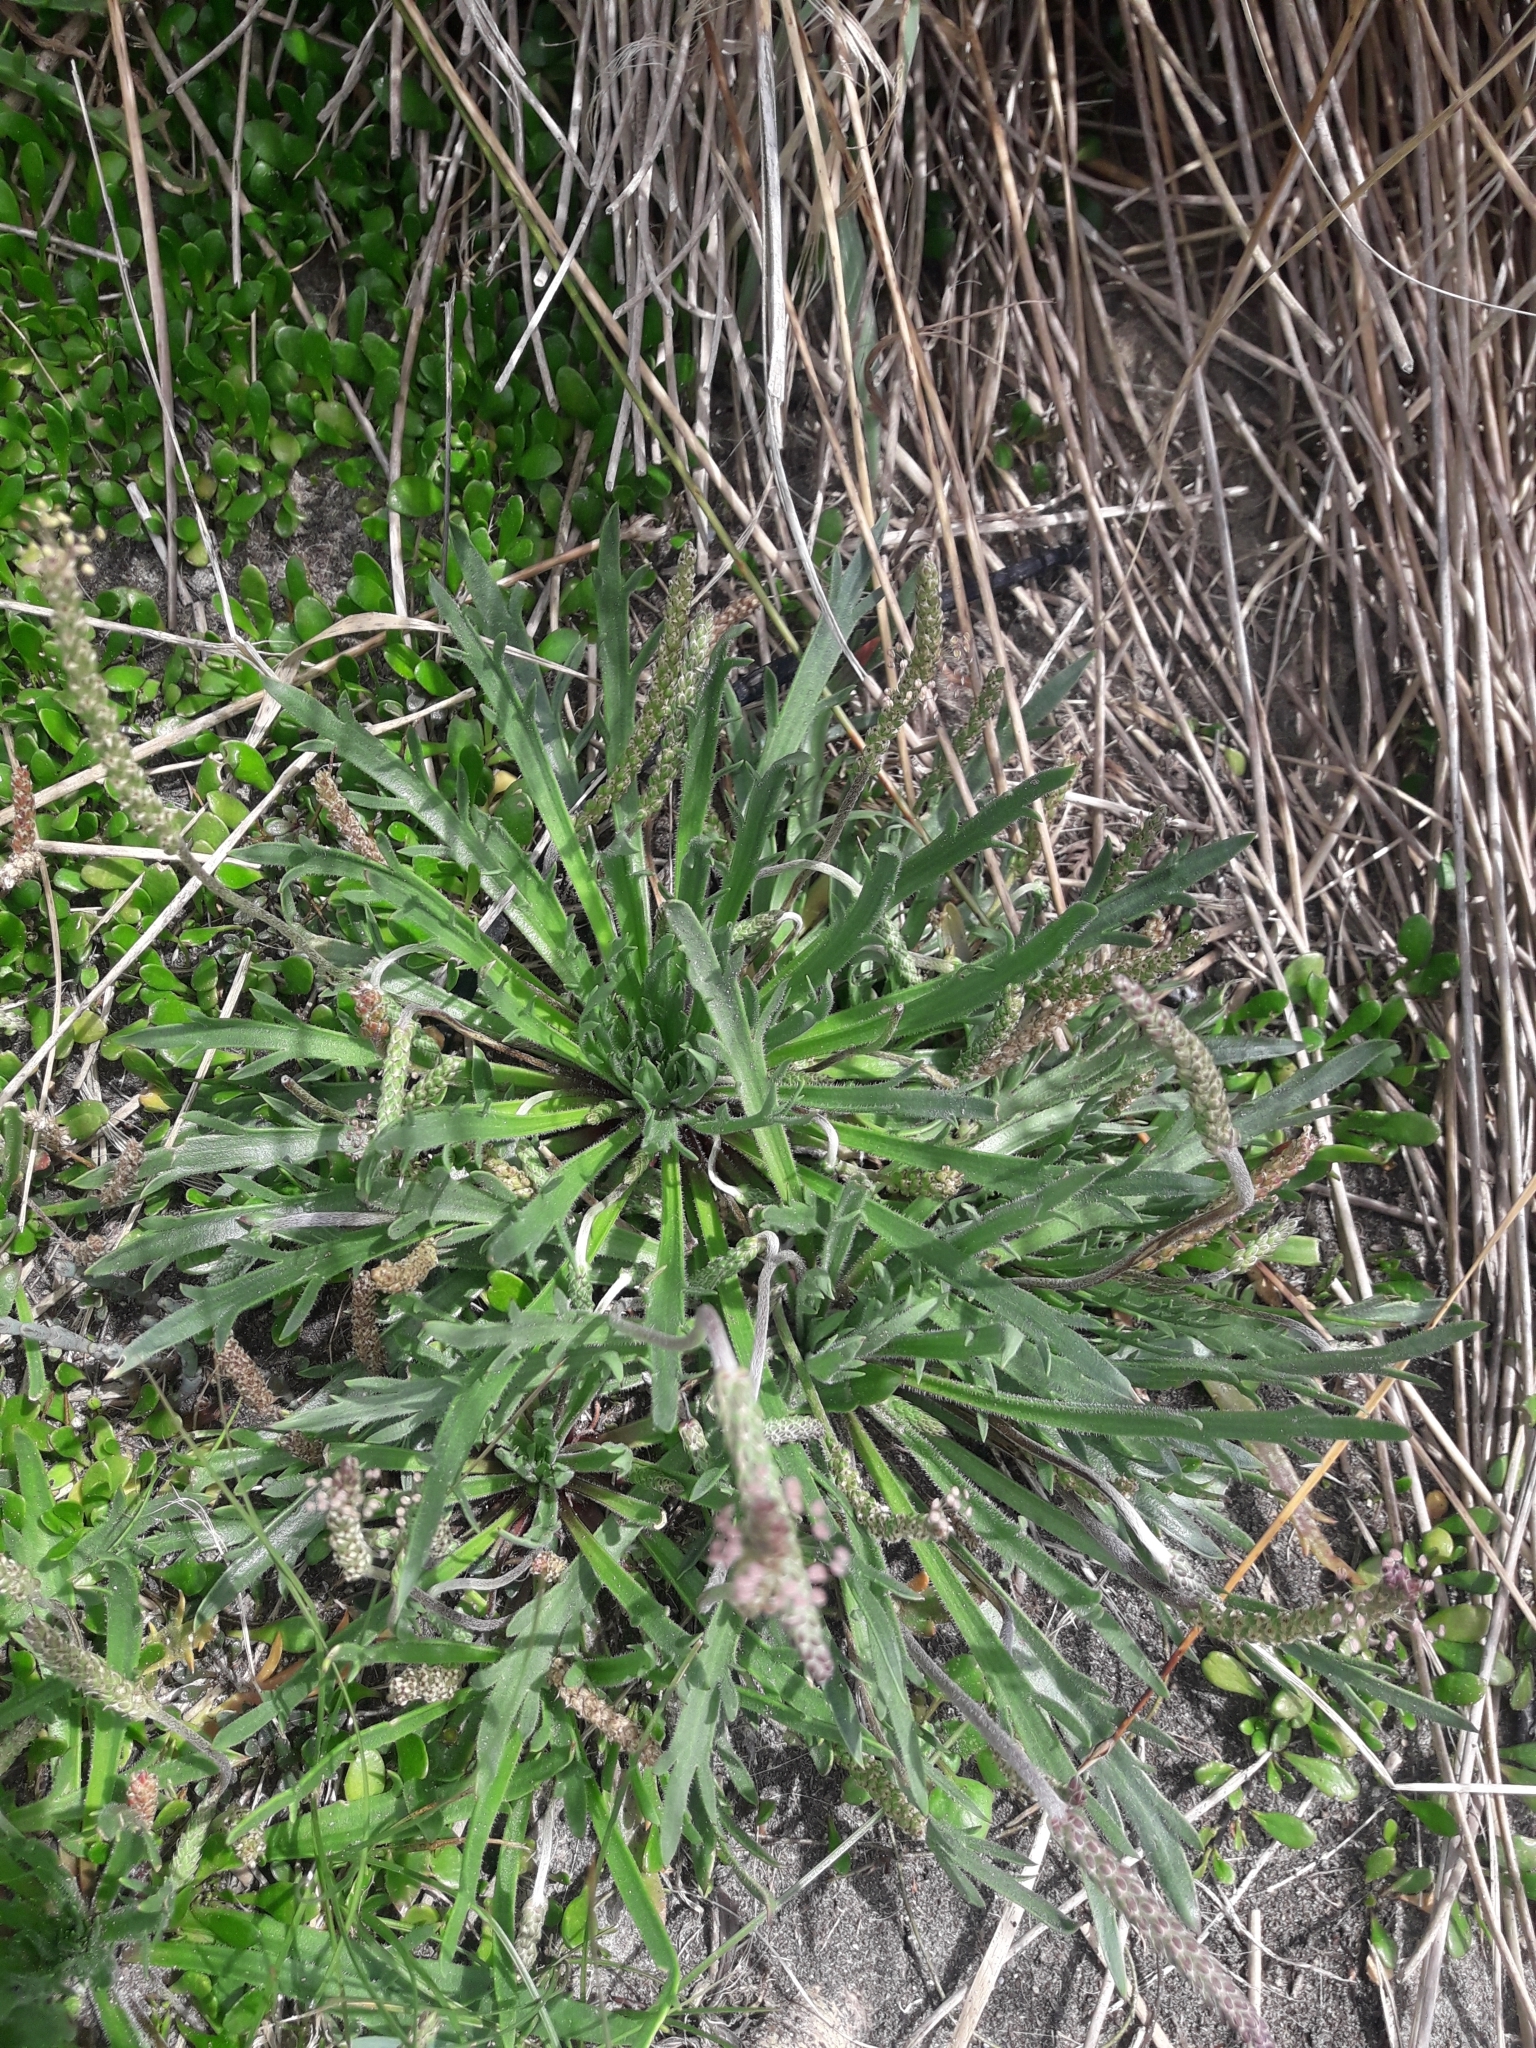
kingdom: Plantae
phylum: Tracheophyta
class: Magnoliopsida
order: Lamiales
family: Plantaginaceae
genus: Plantago
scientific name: Plantago coronopus
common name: Buck's-horn plantain
